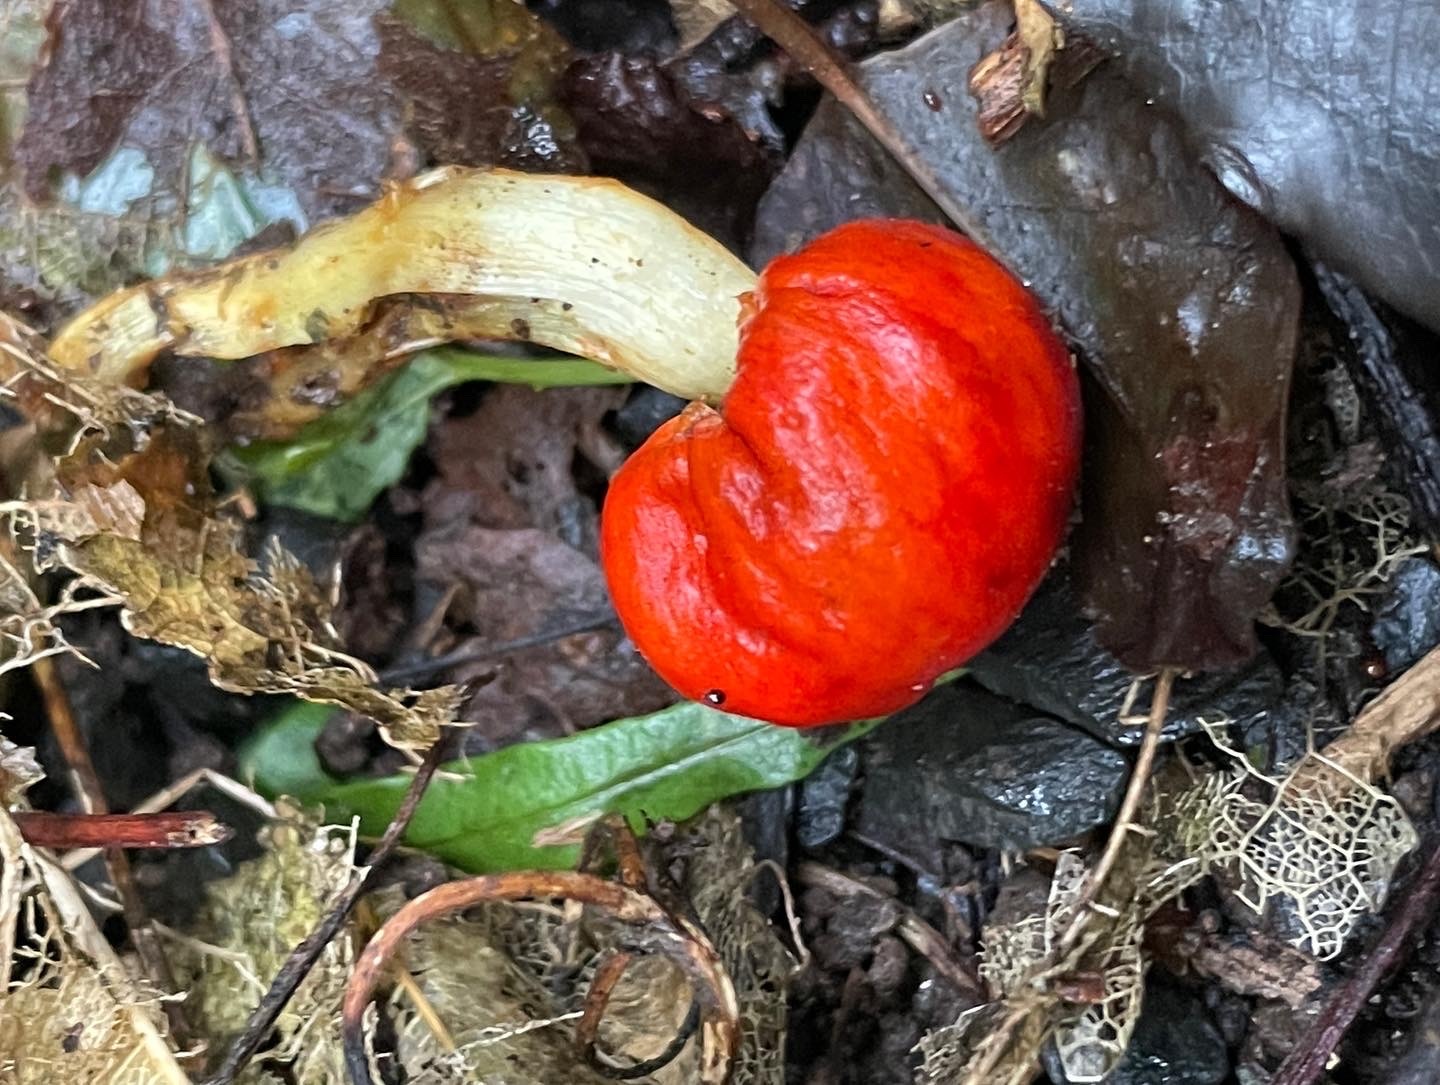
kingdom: Fungi
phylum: Basidiomycota
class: Agaricomycetes
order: Agaricales
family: Strophariaceae
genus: Leratiomyces
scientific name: Leratiomyces erythrocephalus
